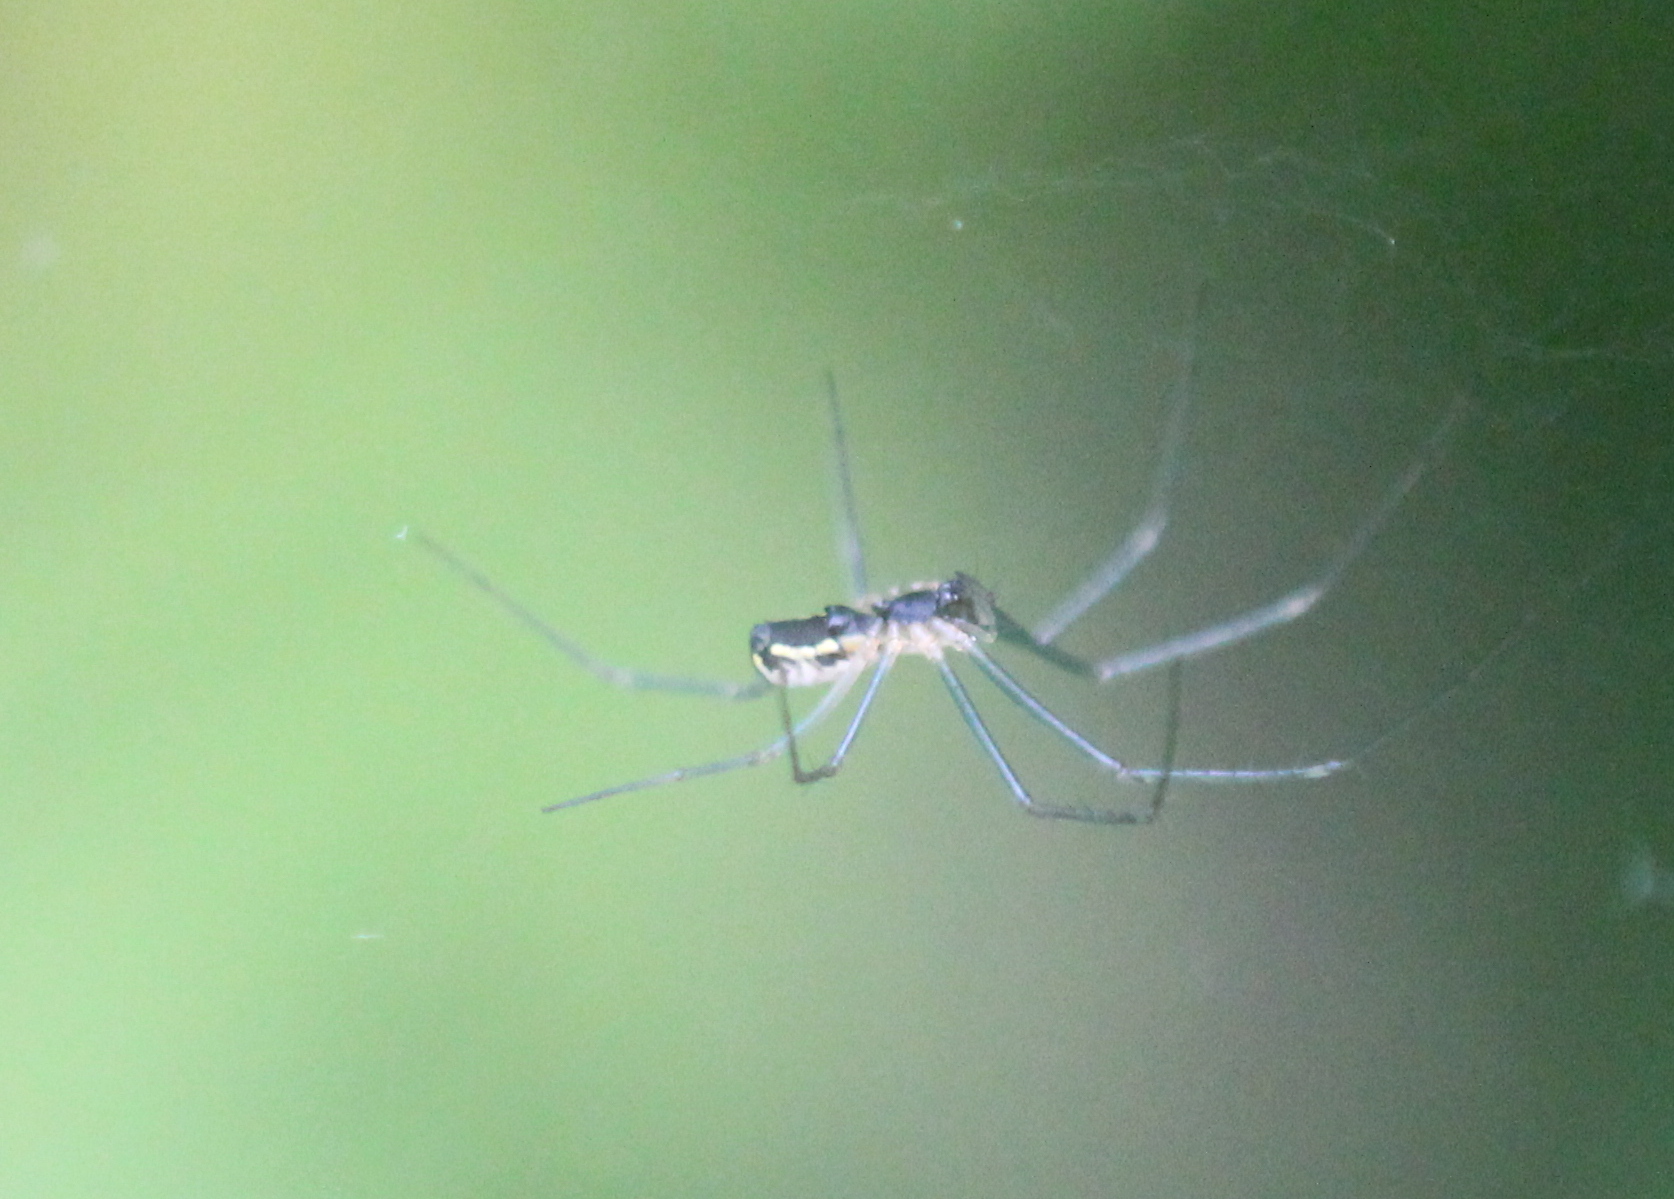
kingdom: Animalia
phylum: Arthropoda
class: Arachnida
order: Araneae
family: Linyphiidae
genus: Neriene
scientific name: Neriene radiata
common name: Filmy dome spider
